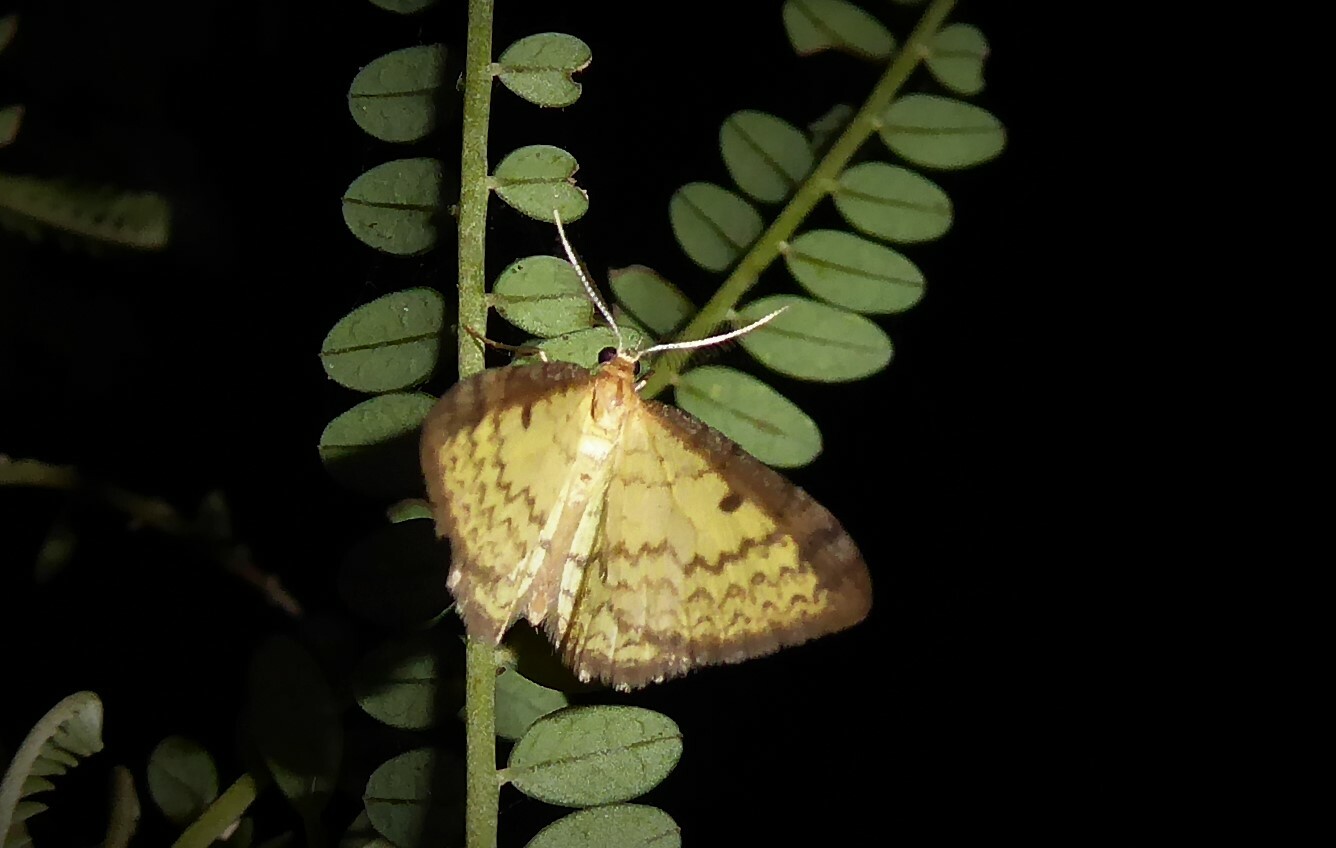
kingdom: Animalia
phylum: Arthropoda
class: Insecta
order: Lepidoptera
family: Geometridae
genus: Epiphryne
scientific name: Epiphryne undosata
